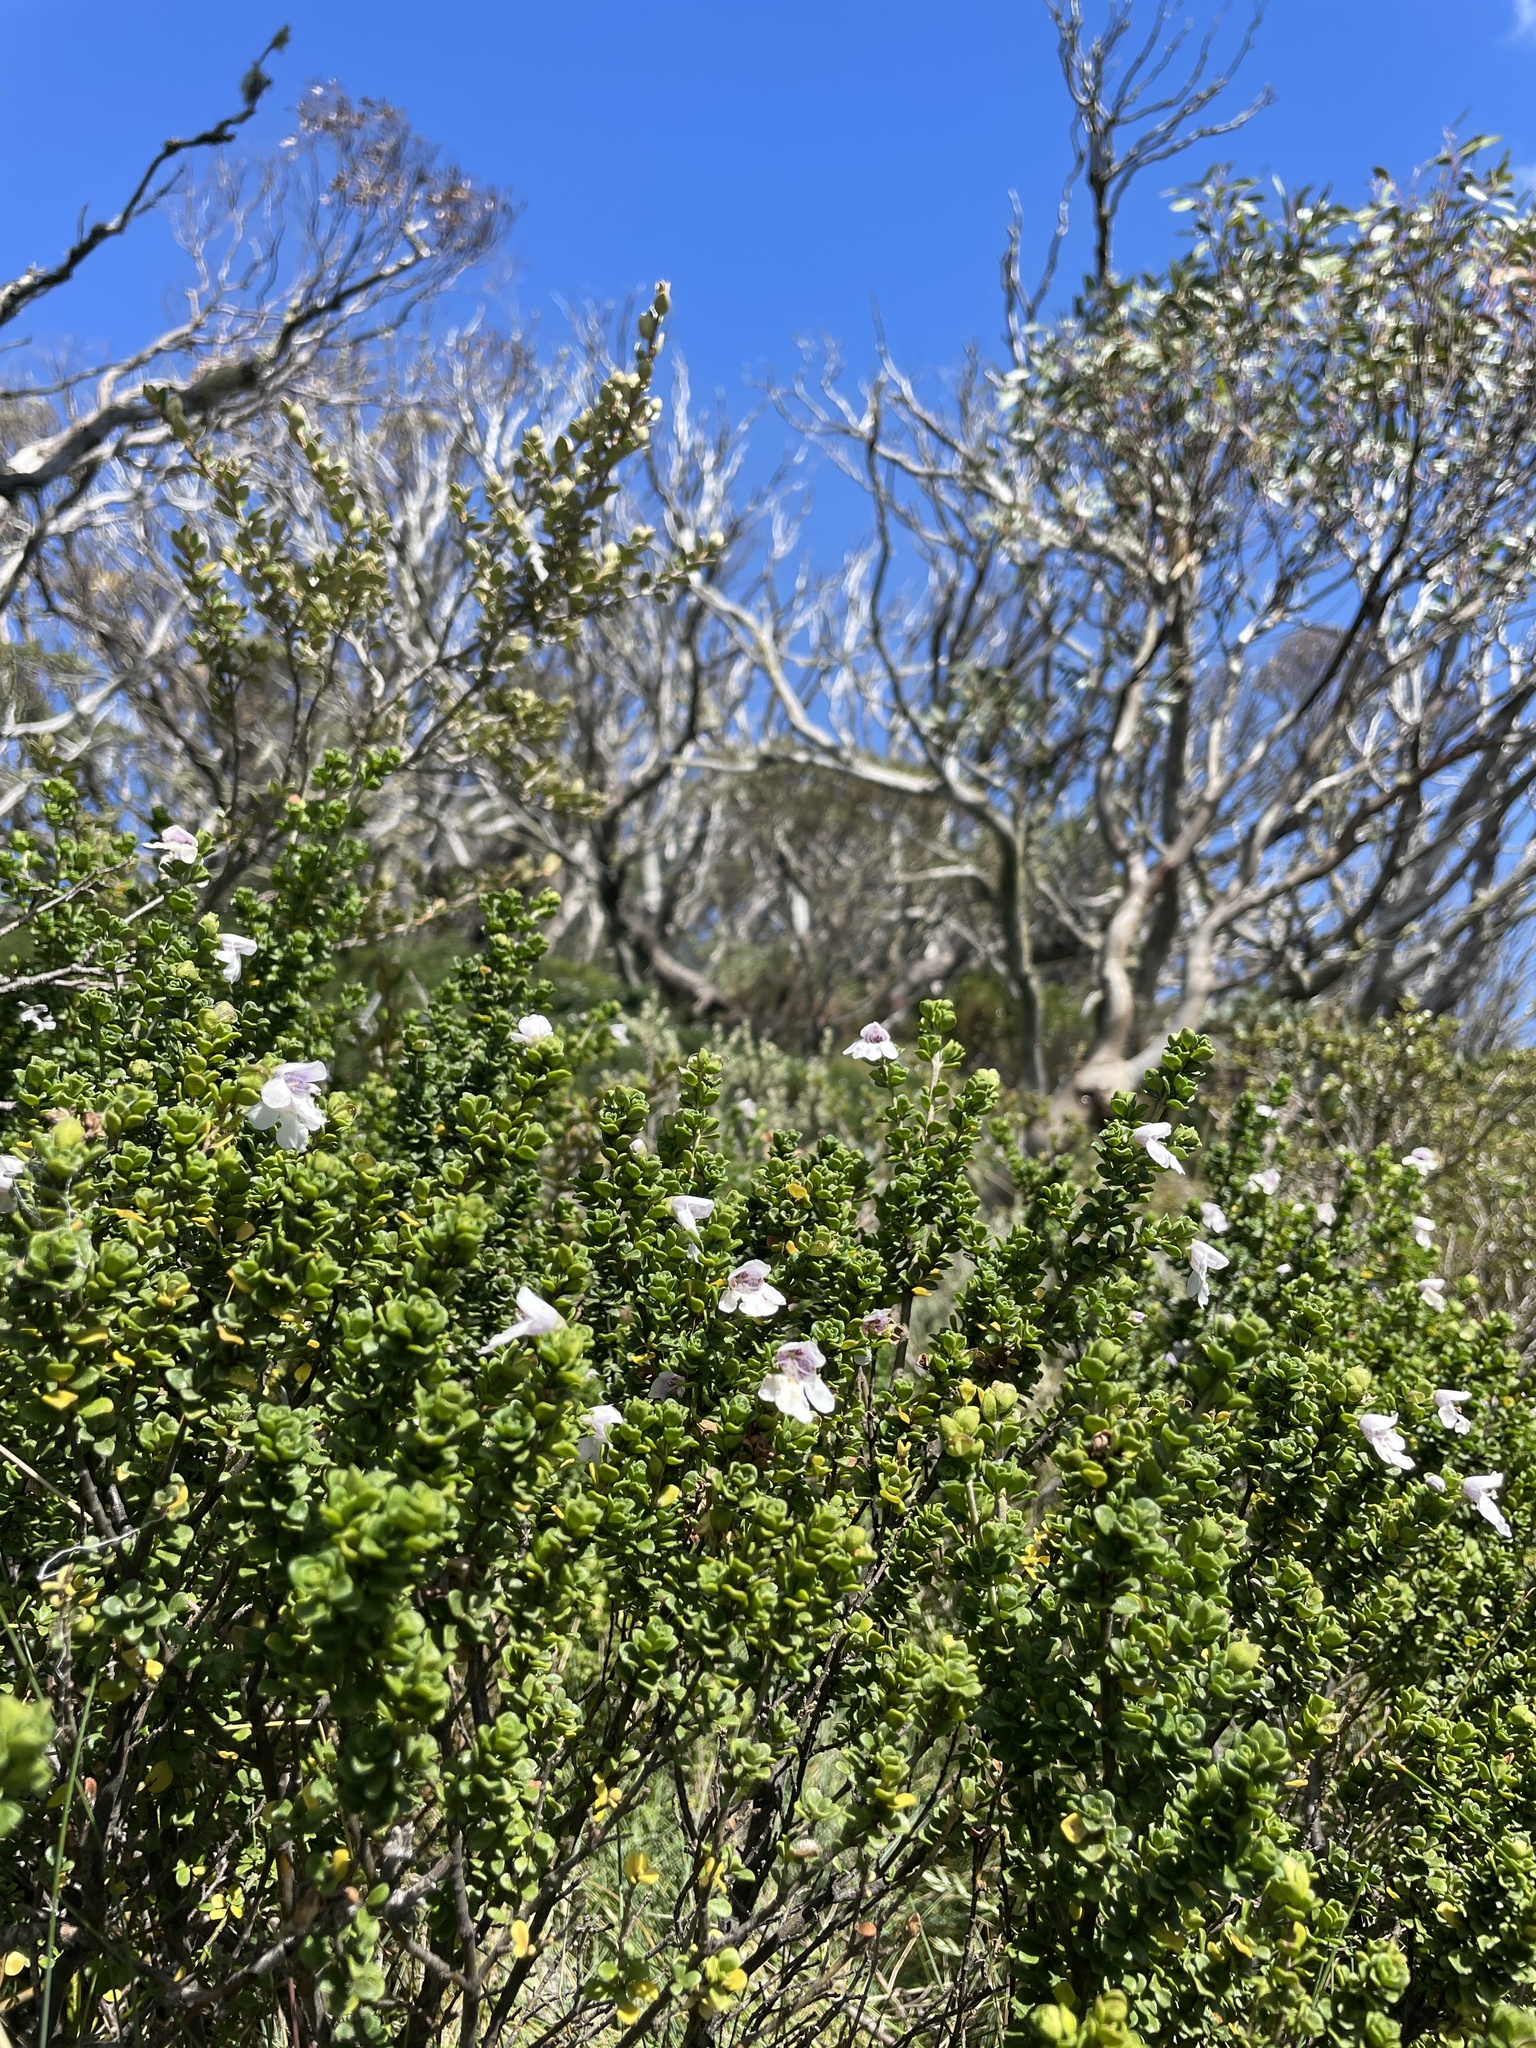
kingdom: Plantae
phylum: Tracheophyta
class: Magnoliopsida
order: Lamiales
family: Lamiaceae
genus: Prostanthera
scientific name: Prostanthera cuneata
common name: Alpine mintbush
